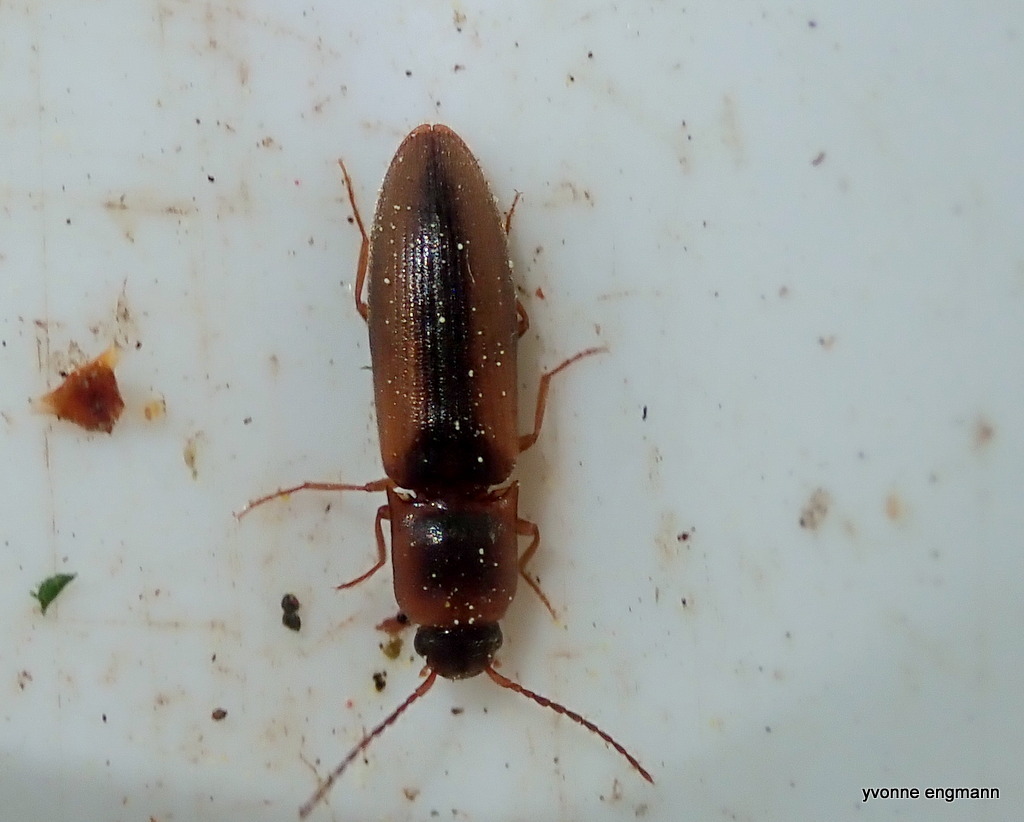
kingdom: Animalia
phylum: Arthropoda
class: Insecta
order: Coleoptera
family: Elateridae
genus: Dalopius
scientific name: Dalopius marginatus
